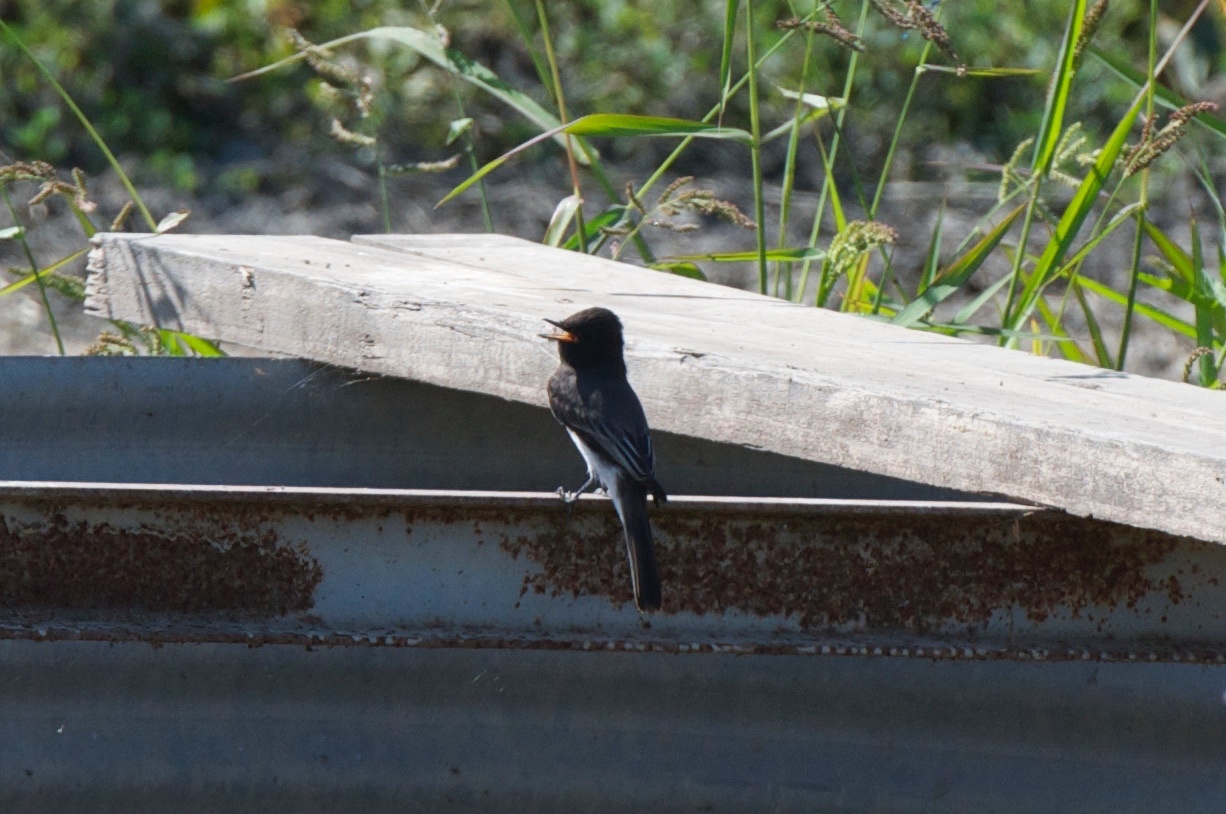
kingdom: Animalia
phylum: Chordata
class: Aves
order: Passeriformes
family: Tyrannidae
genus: Sayornis
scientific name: Sayornis nigricans
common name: Black phoebe
